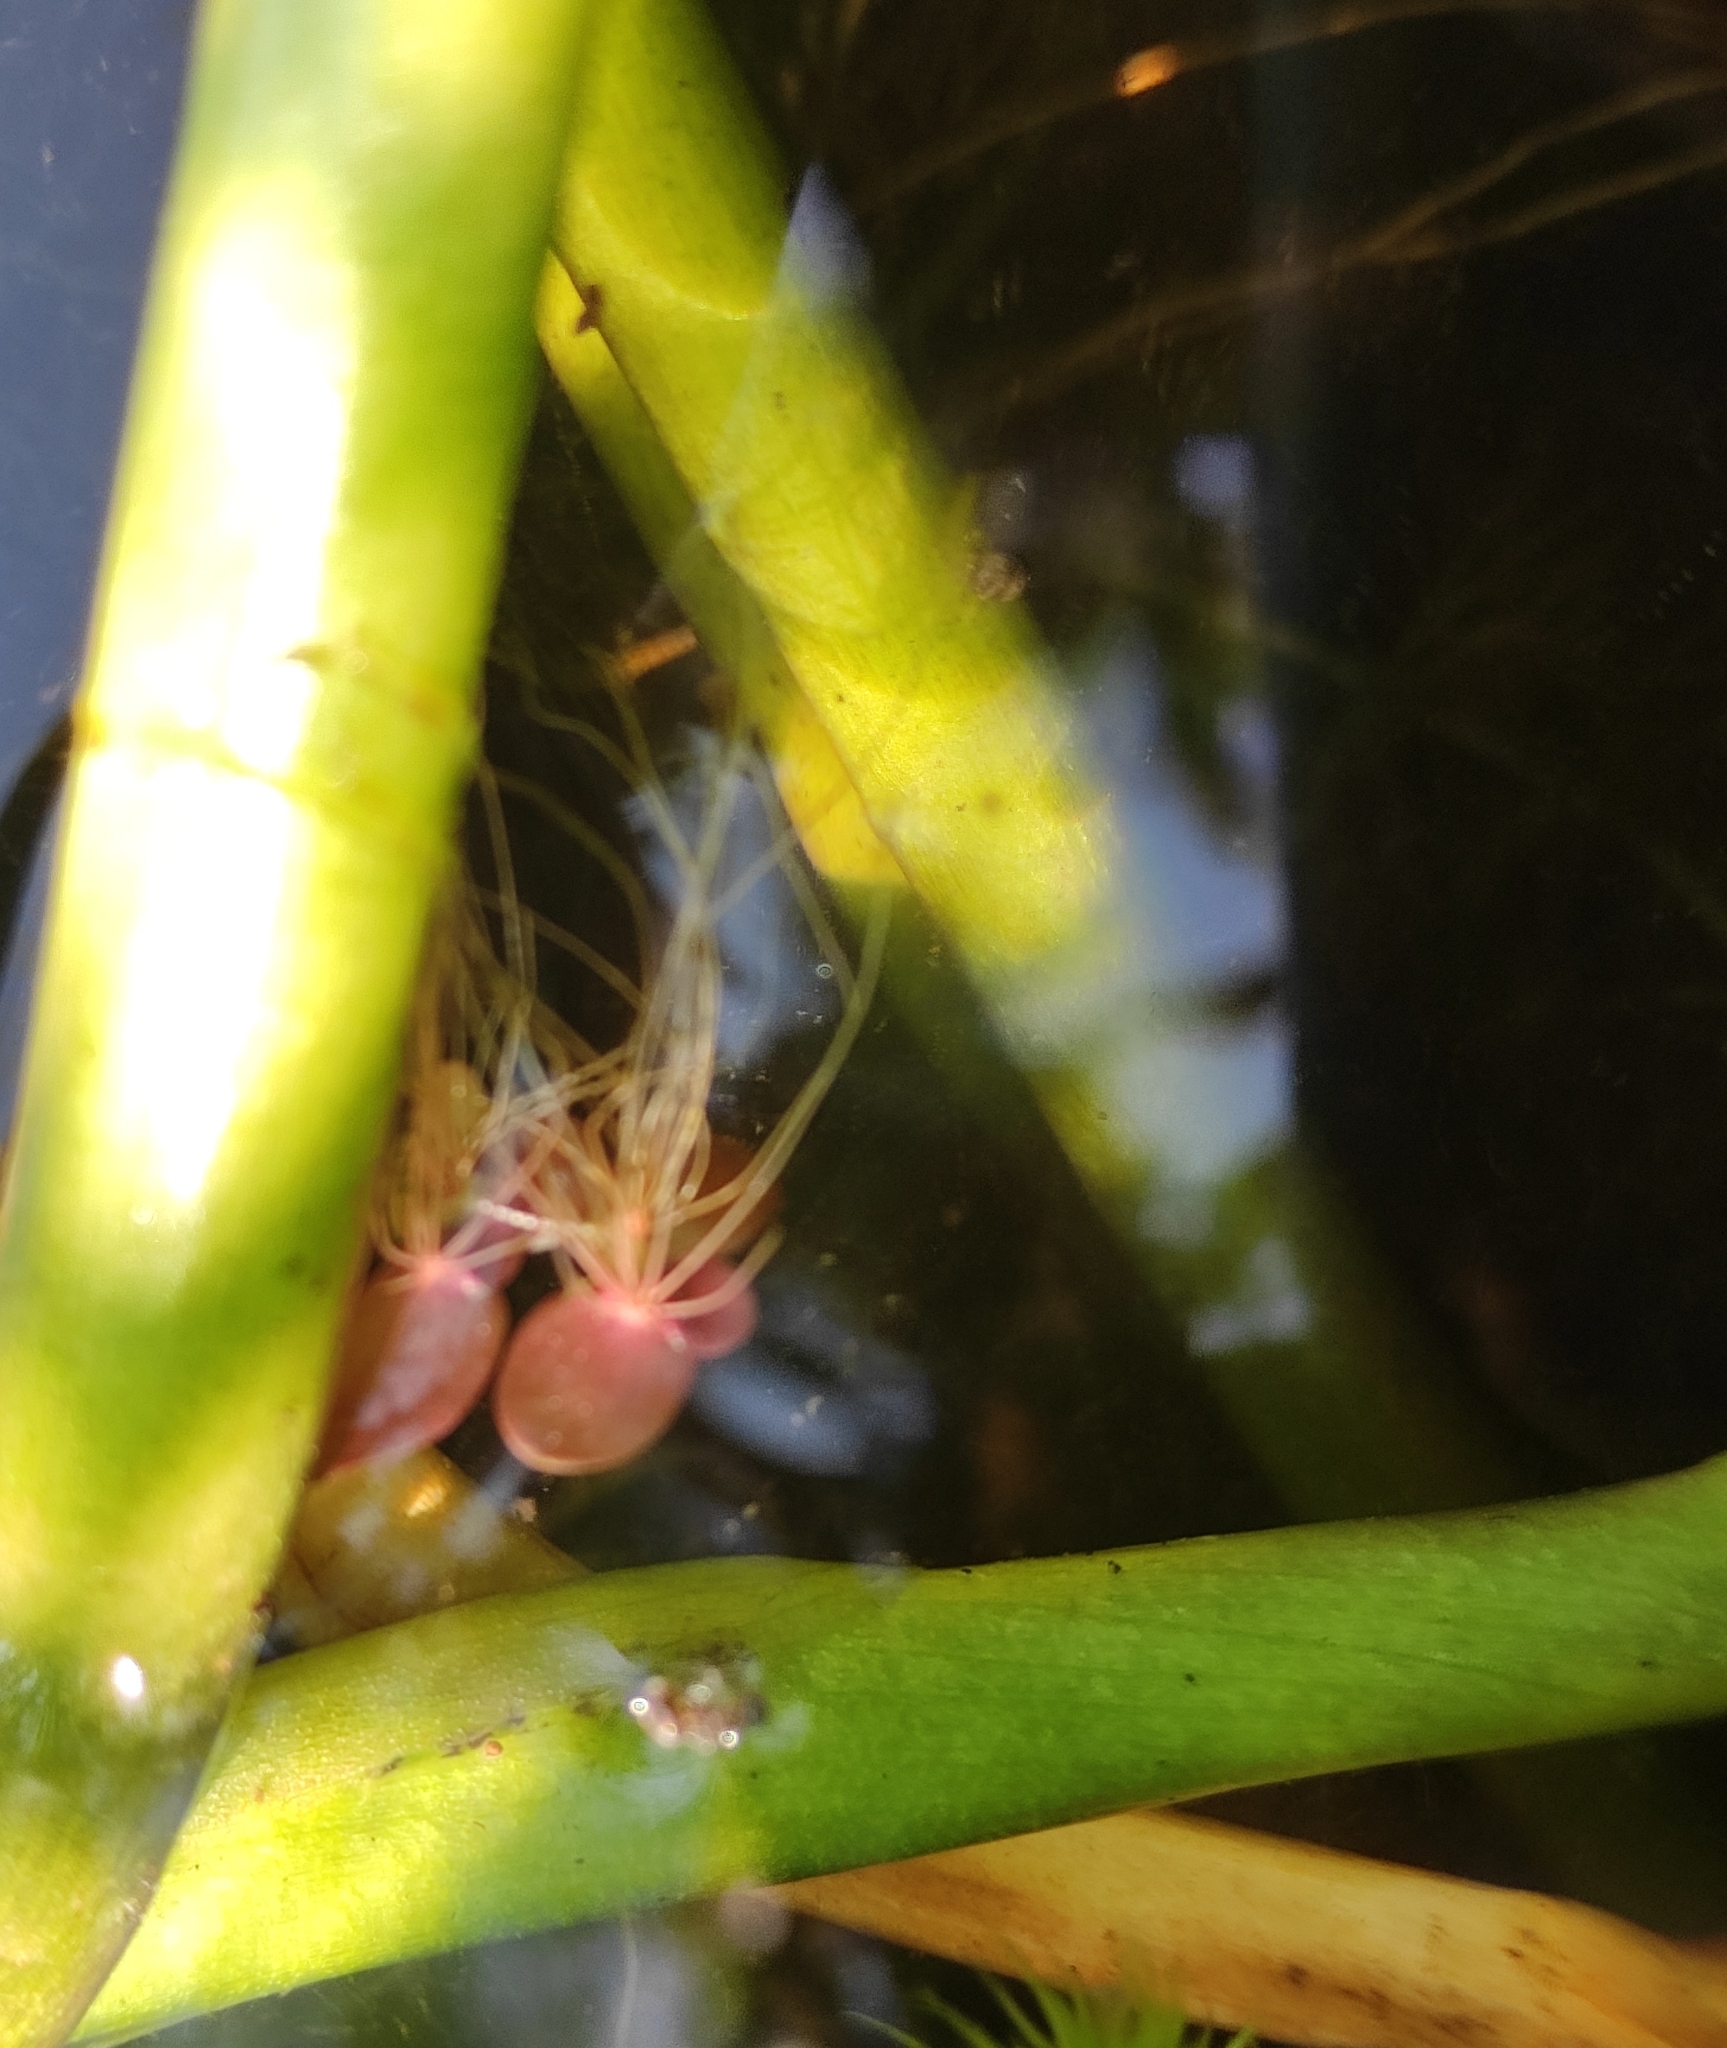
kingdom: Plantae
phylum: Tracheophyta
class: Liliopsida
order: Alismatales
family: Araceae
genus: Spirodela
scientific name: Spirodela polyrhiza
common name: Great duckweed
